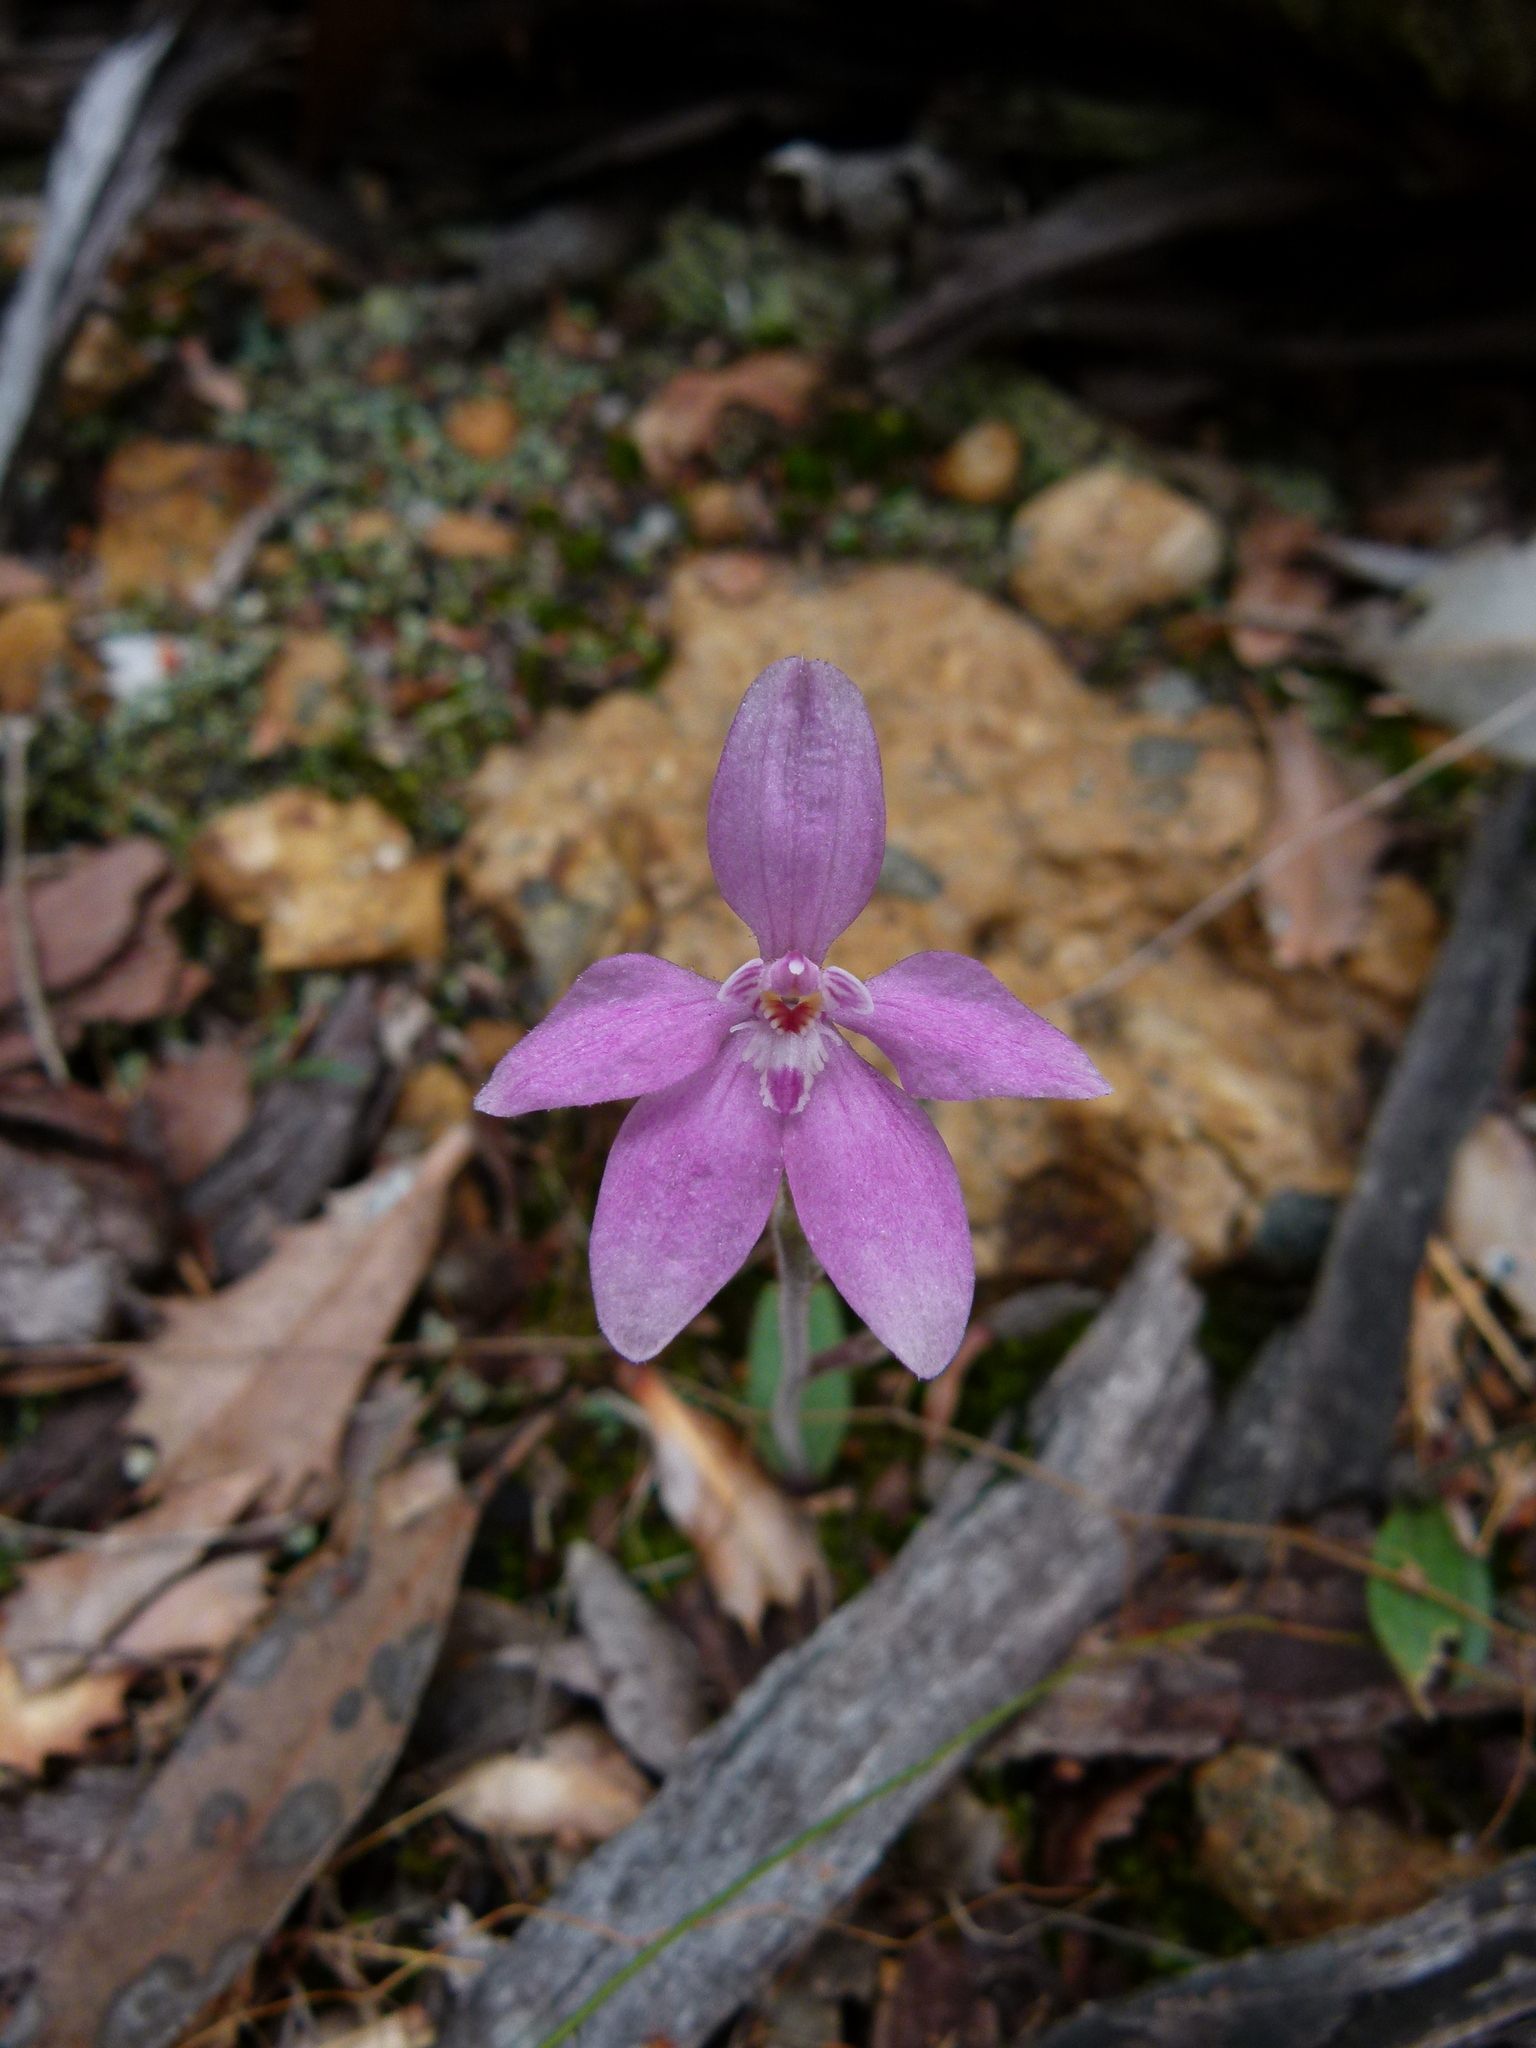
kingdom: Plantae
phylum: Tracheophyta
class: Liliopsida
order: Asparagales
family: Orchidaceae
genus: Caladenia
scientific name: Caladenia reptans
